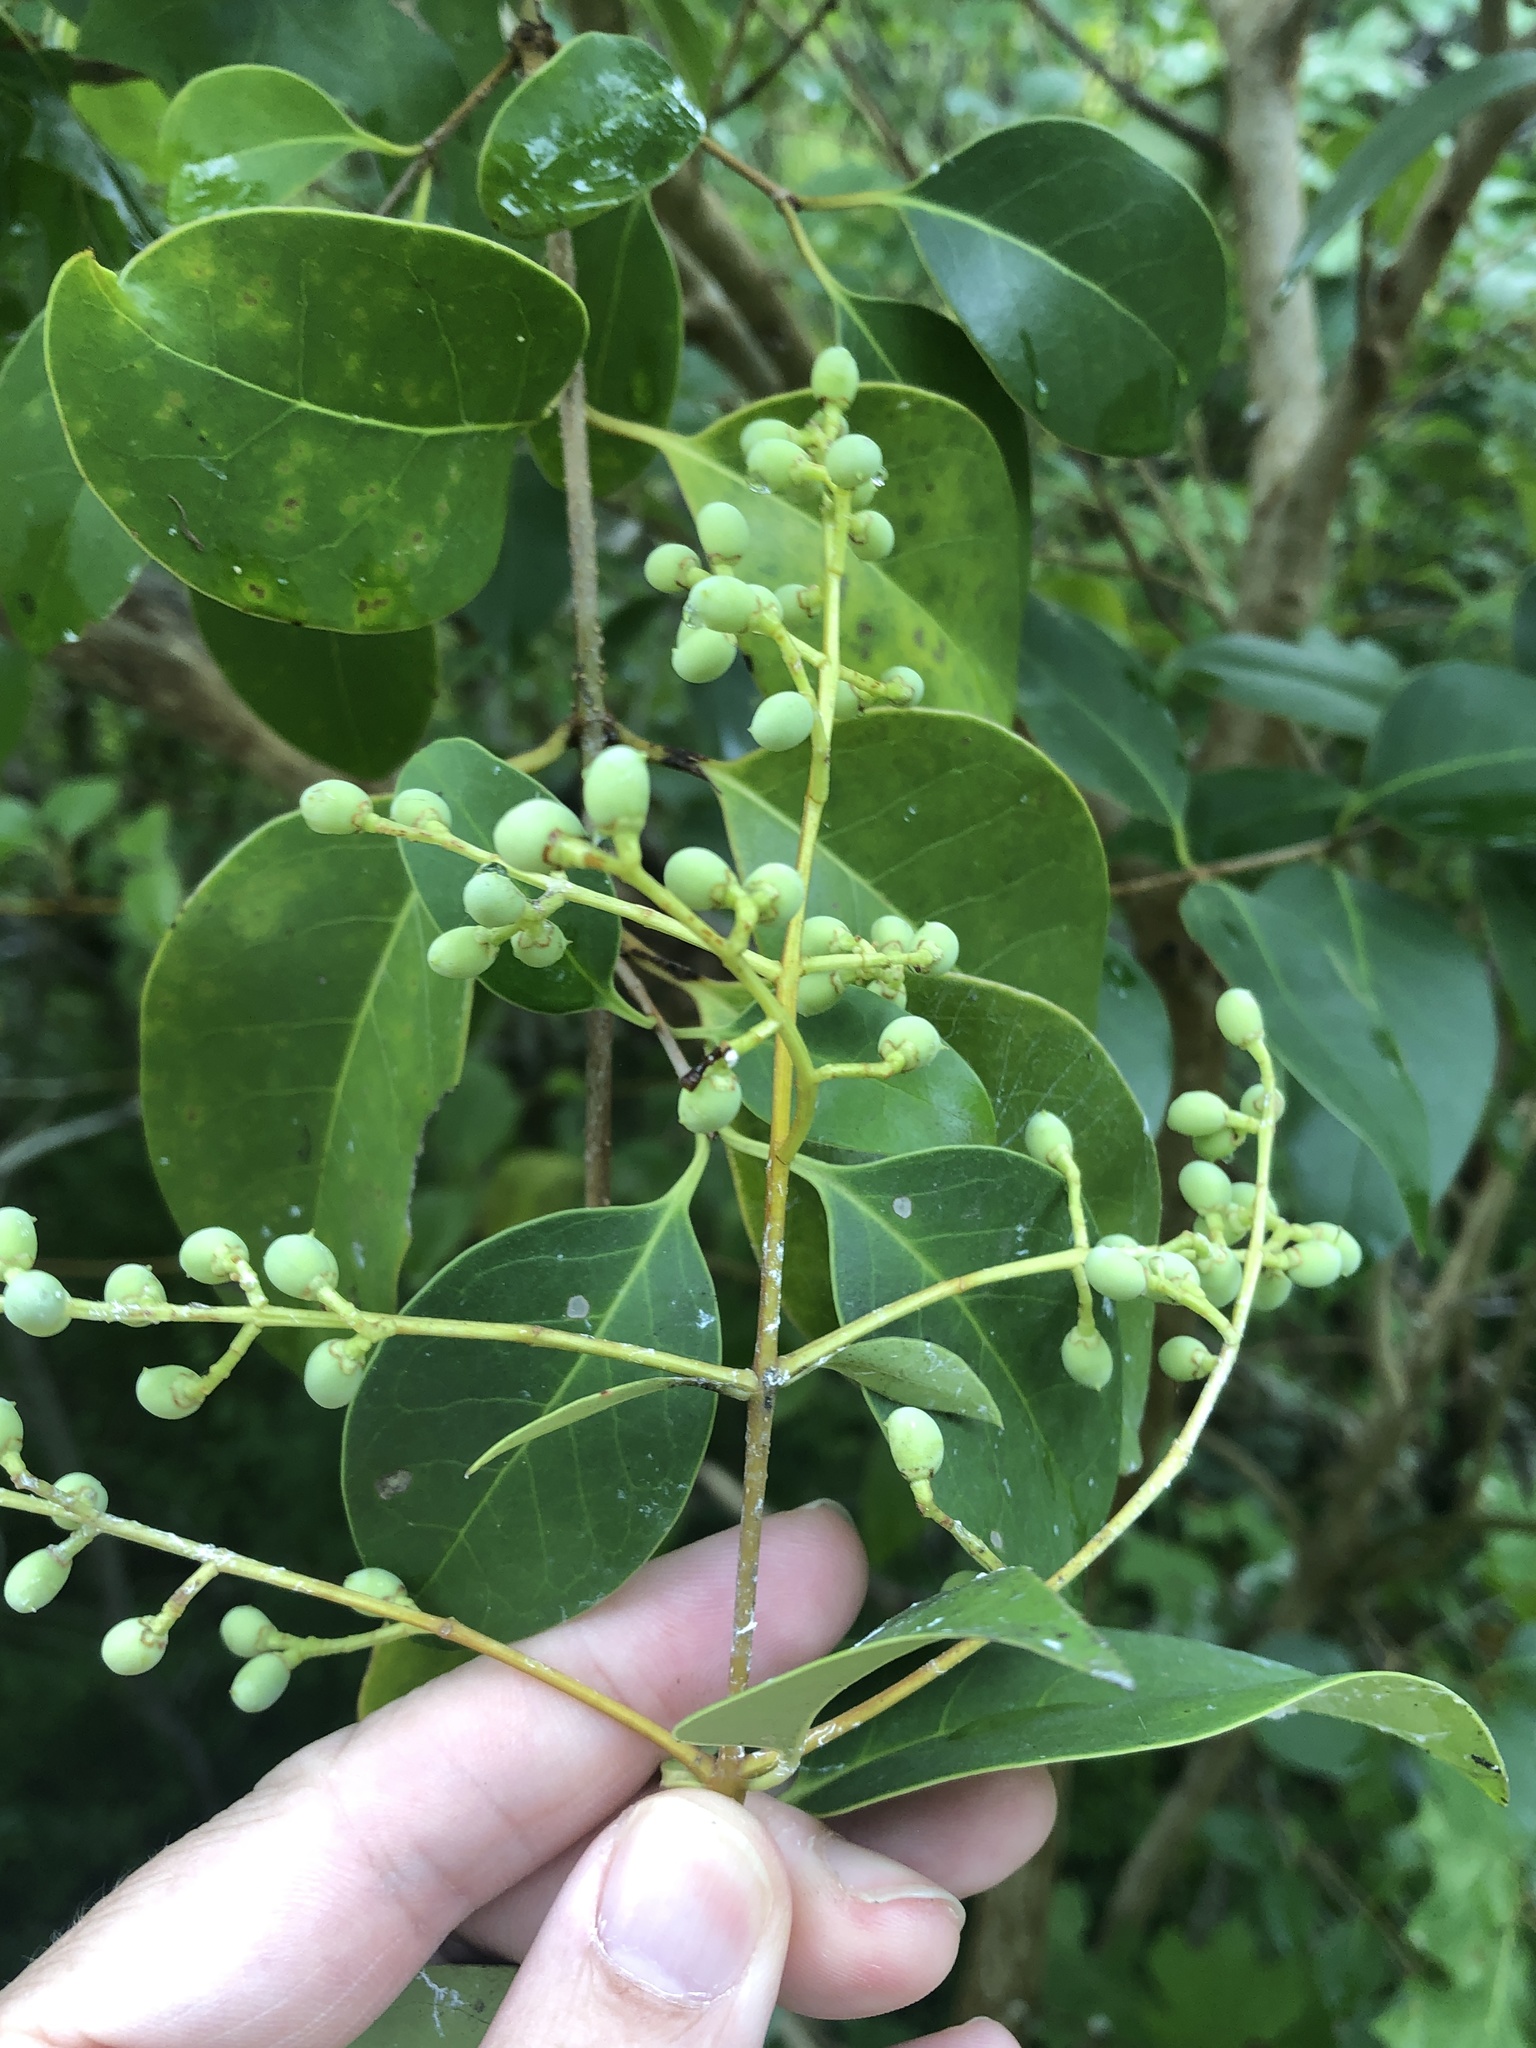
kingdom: Plantae
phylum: Tracheophyta
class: Magnoliopsida
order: Lamiales
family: Oleaceae
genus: Ligustrum
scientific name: Ligustrum lucidum
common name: Glossy privet
